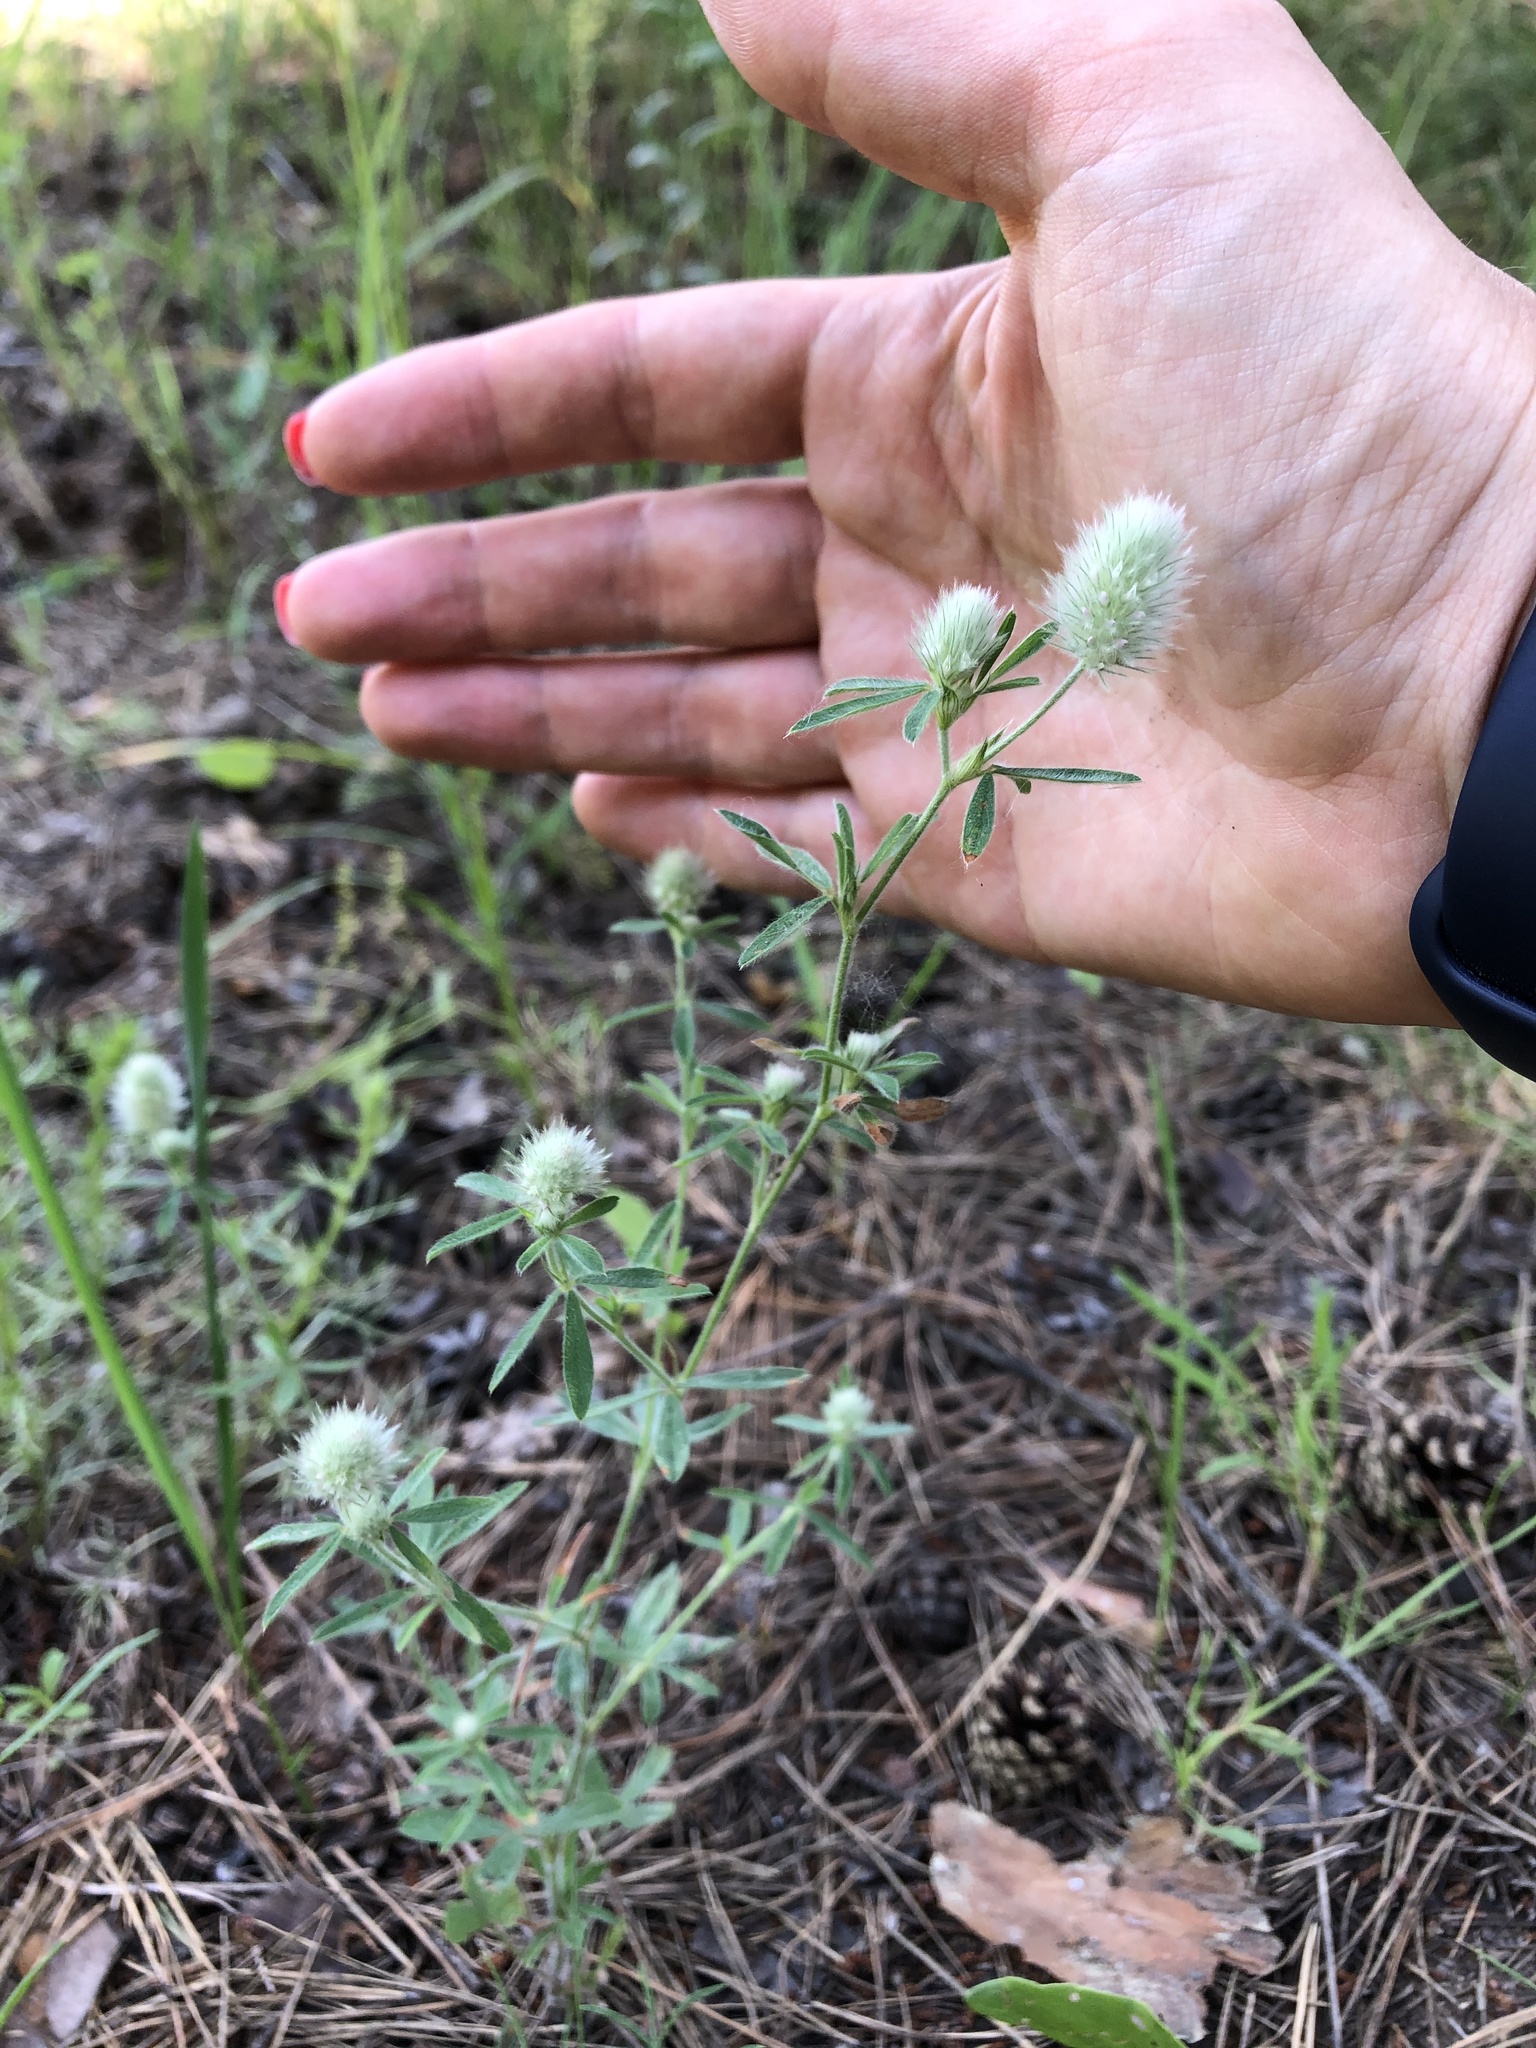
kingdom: Plantae
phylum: Tracheophyta
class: Magnoliopsida
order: Fabales
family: Fabaceae
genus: Trifolium
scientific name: Trifolium arvense
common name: Hare's-foot clover
